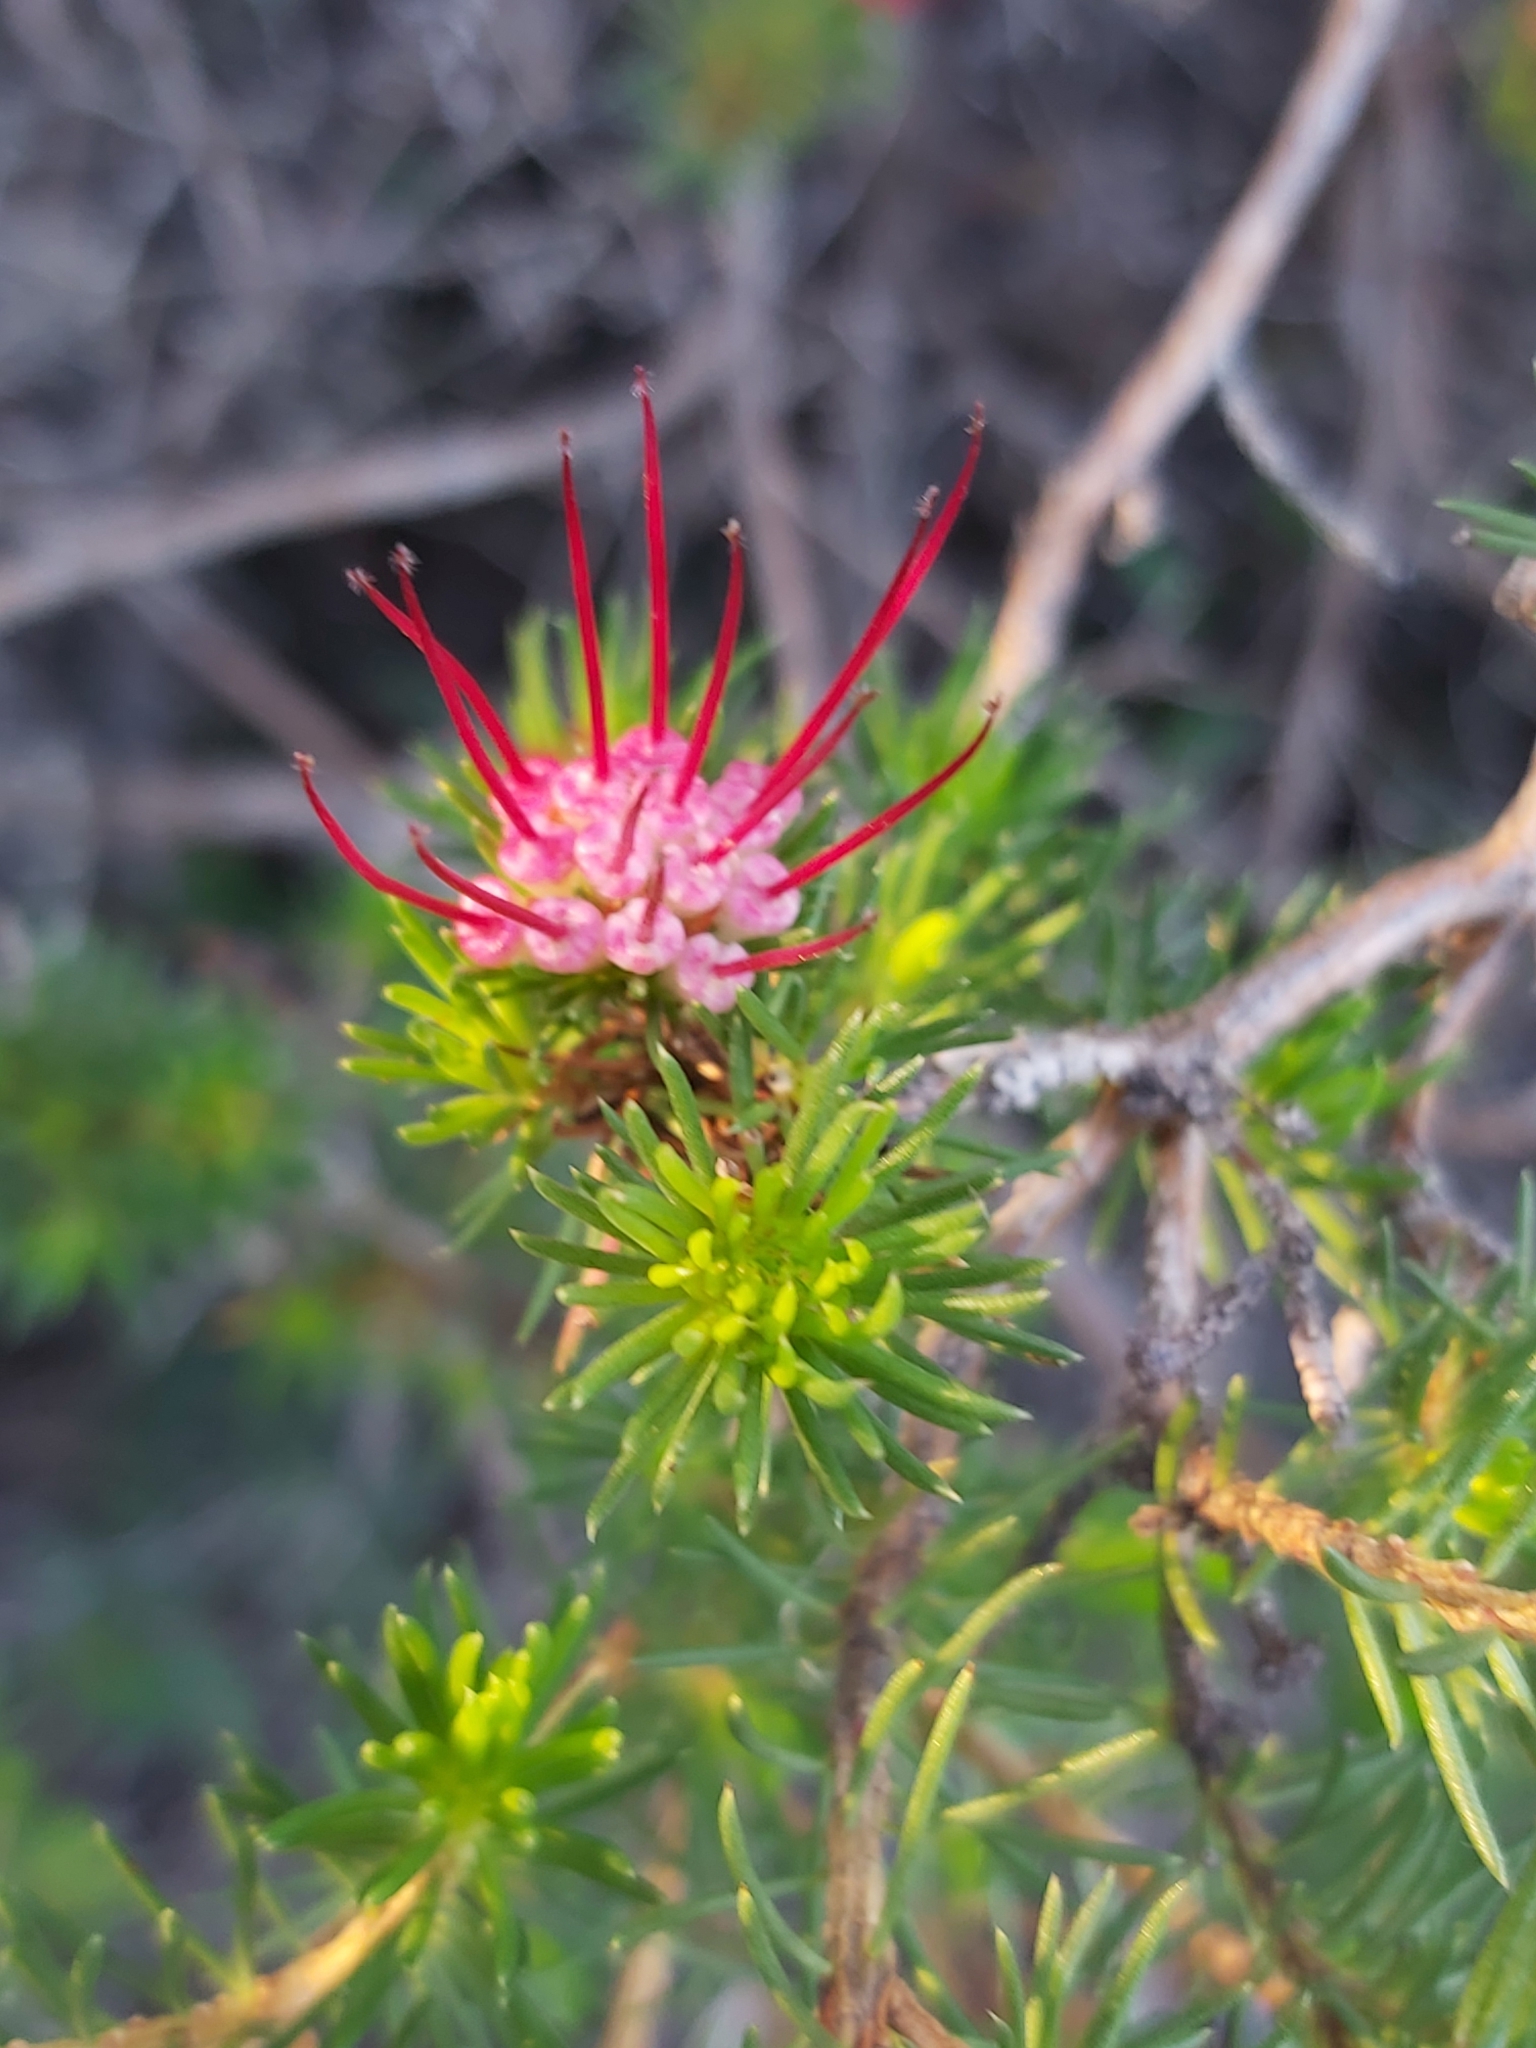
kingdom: Plantae
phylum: Tracheophyta
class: Magnoliopsida
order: Myrtales
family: Myrtaceae
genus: Darwinia
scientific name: Darwinia fascicularis
